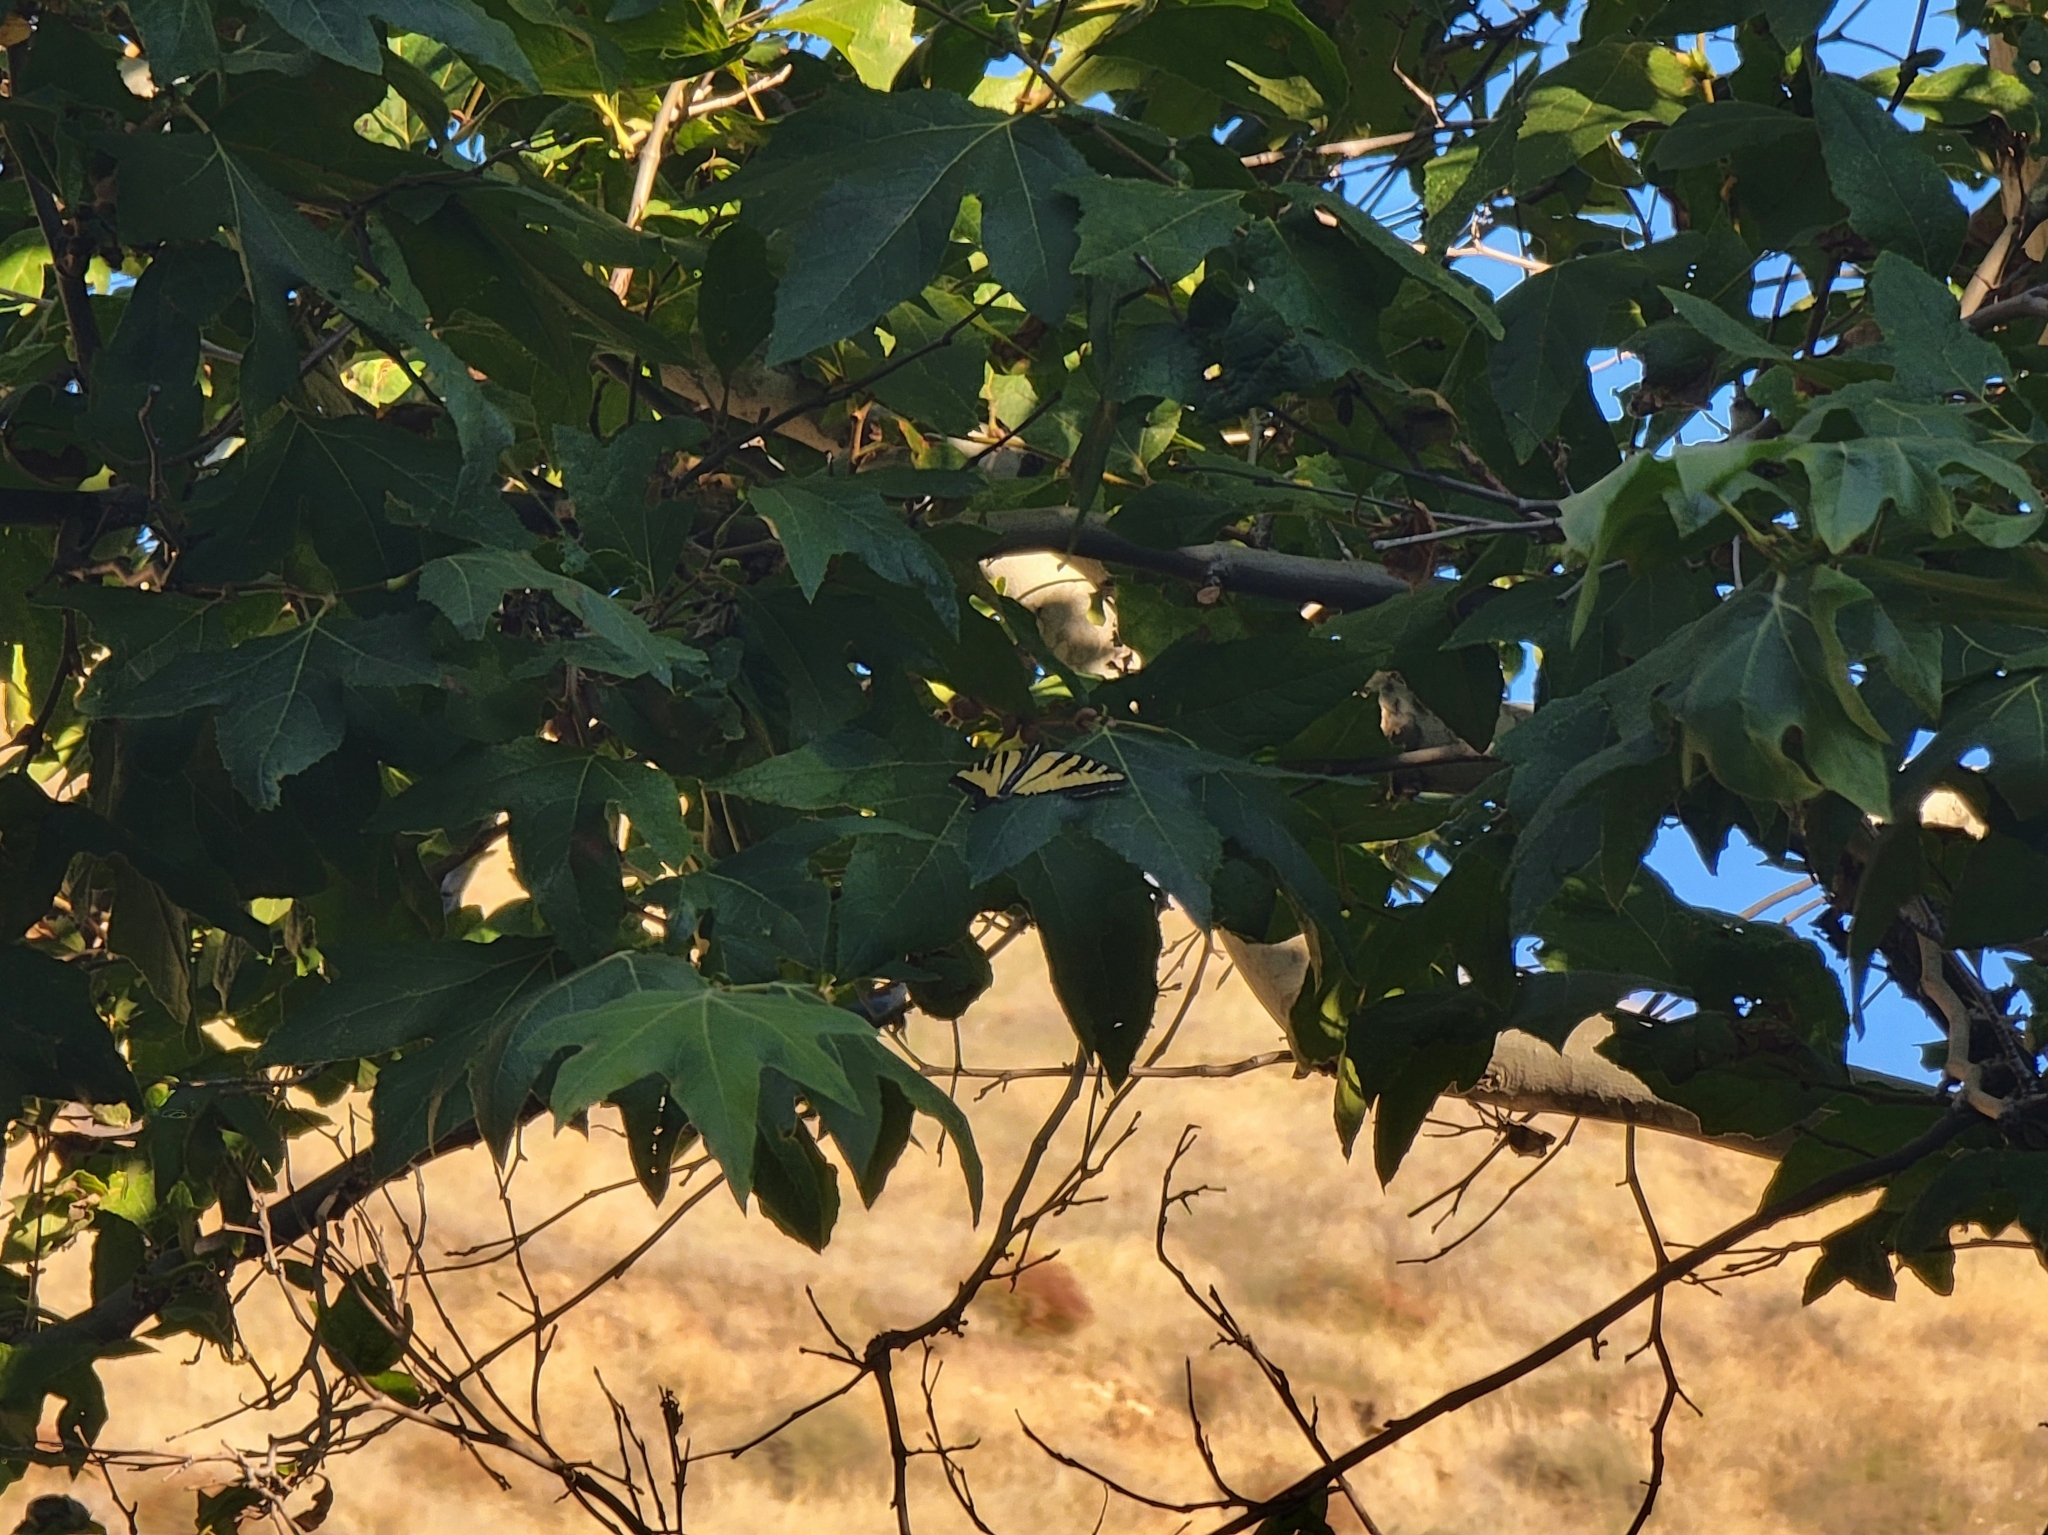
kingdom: Animalia
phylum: Arthropoda
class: Insecta
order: Lepidoptera
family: Papilionidae
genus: Papilio
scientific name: Papilio rutulus
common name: Western tiger swallowtail
